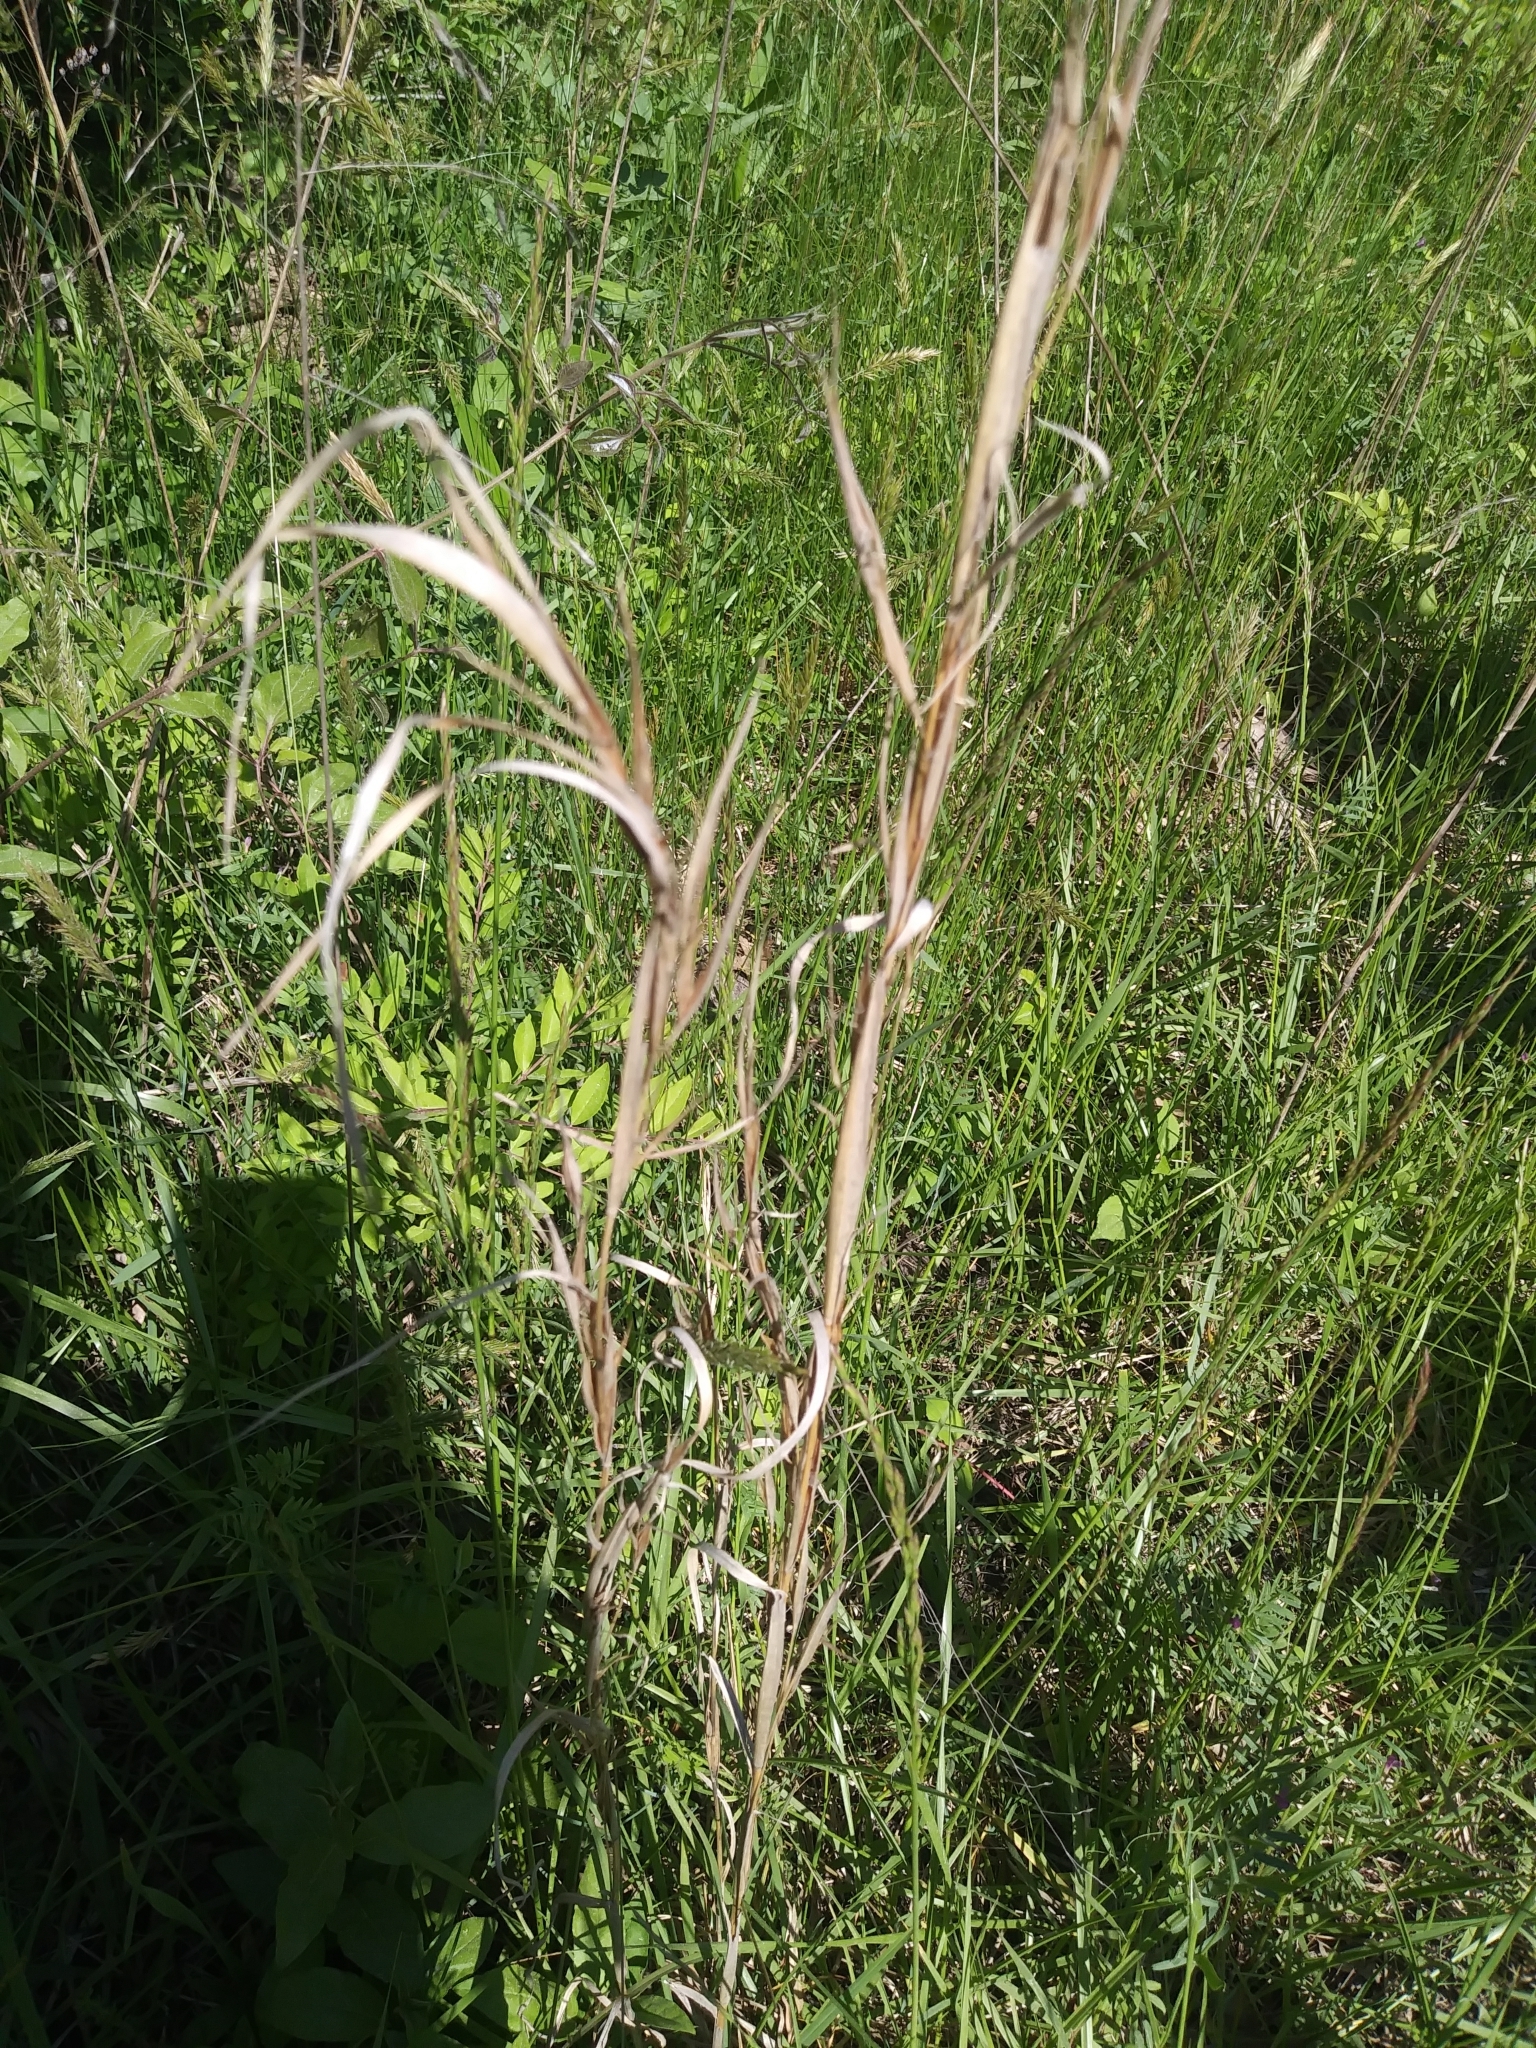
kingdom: Plantae
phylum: Tracheophyta
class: Liliopsida
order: Poales
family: Poaceae
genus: Andropogon
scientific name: Andropogon virginicus
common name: Broomsedge bluestem
